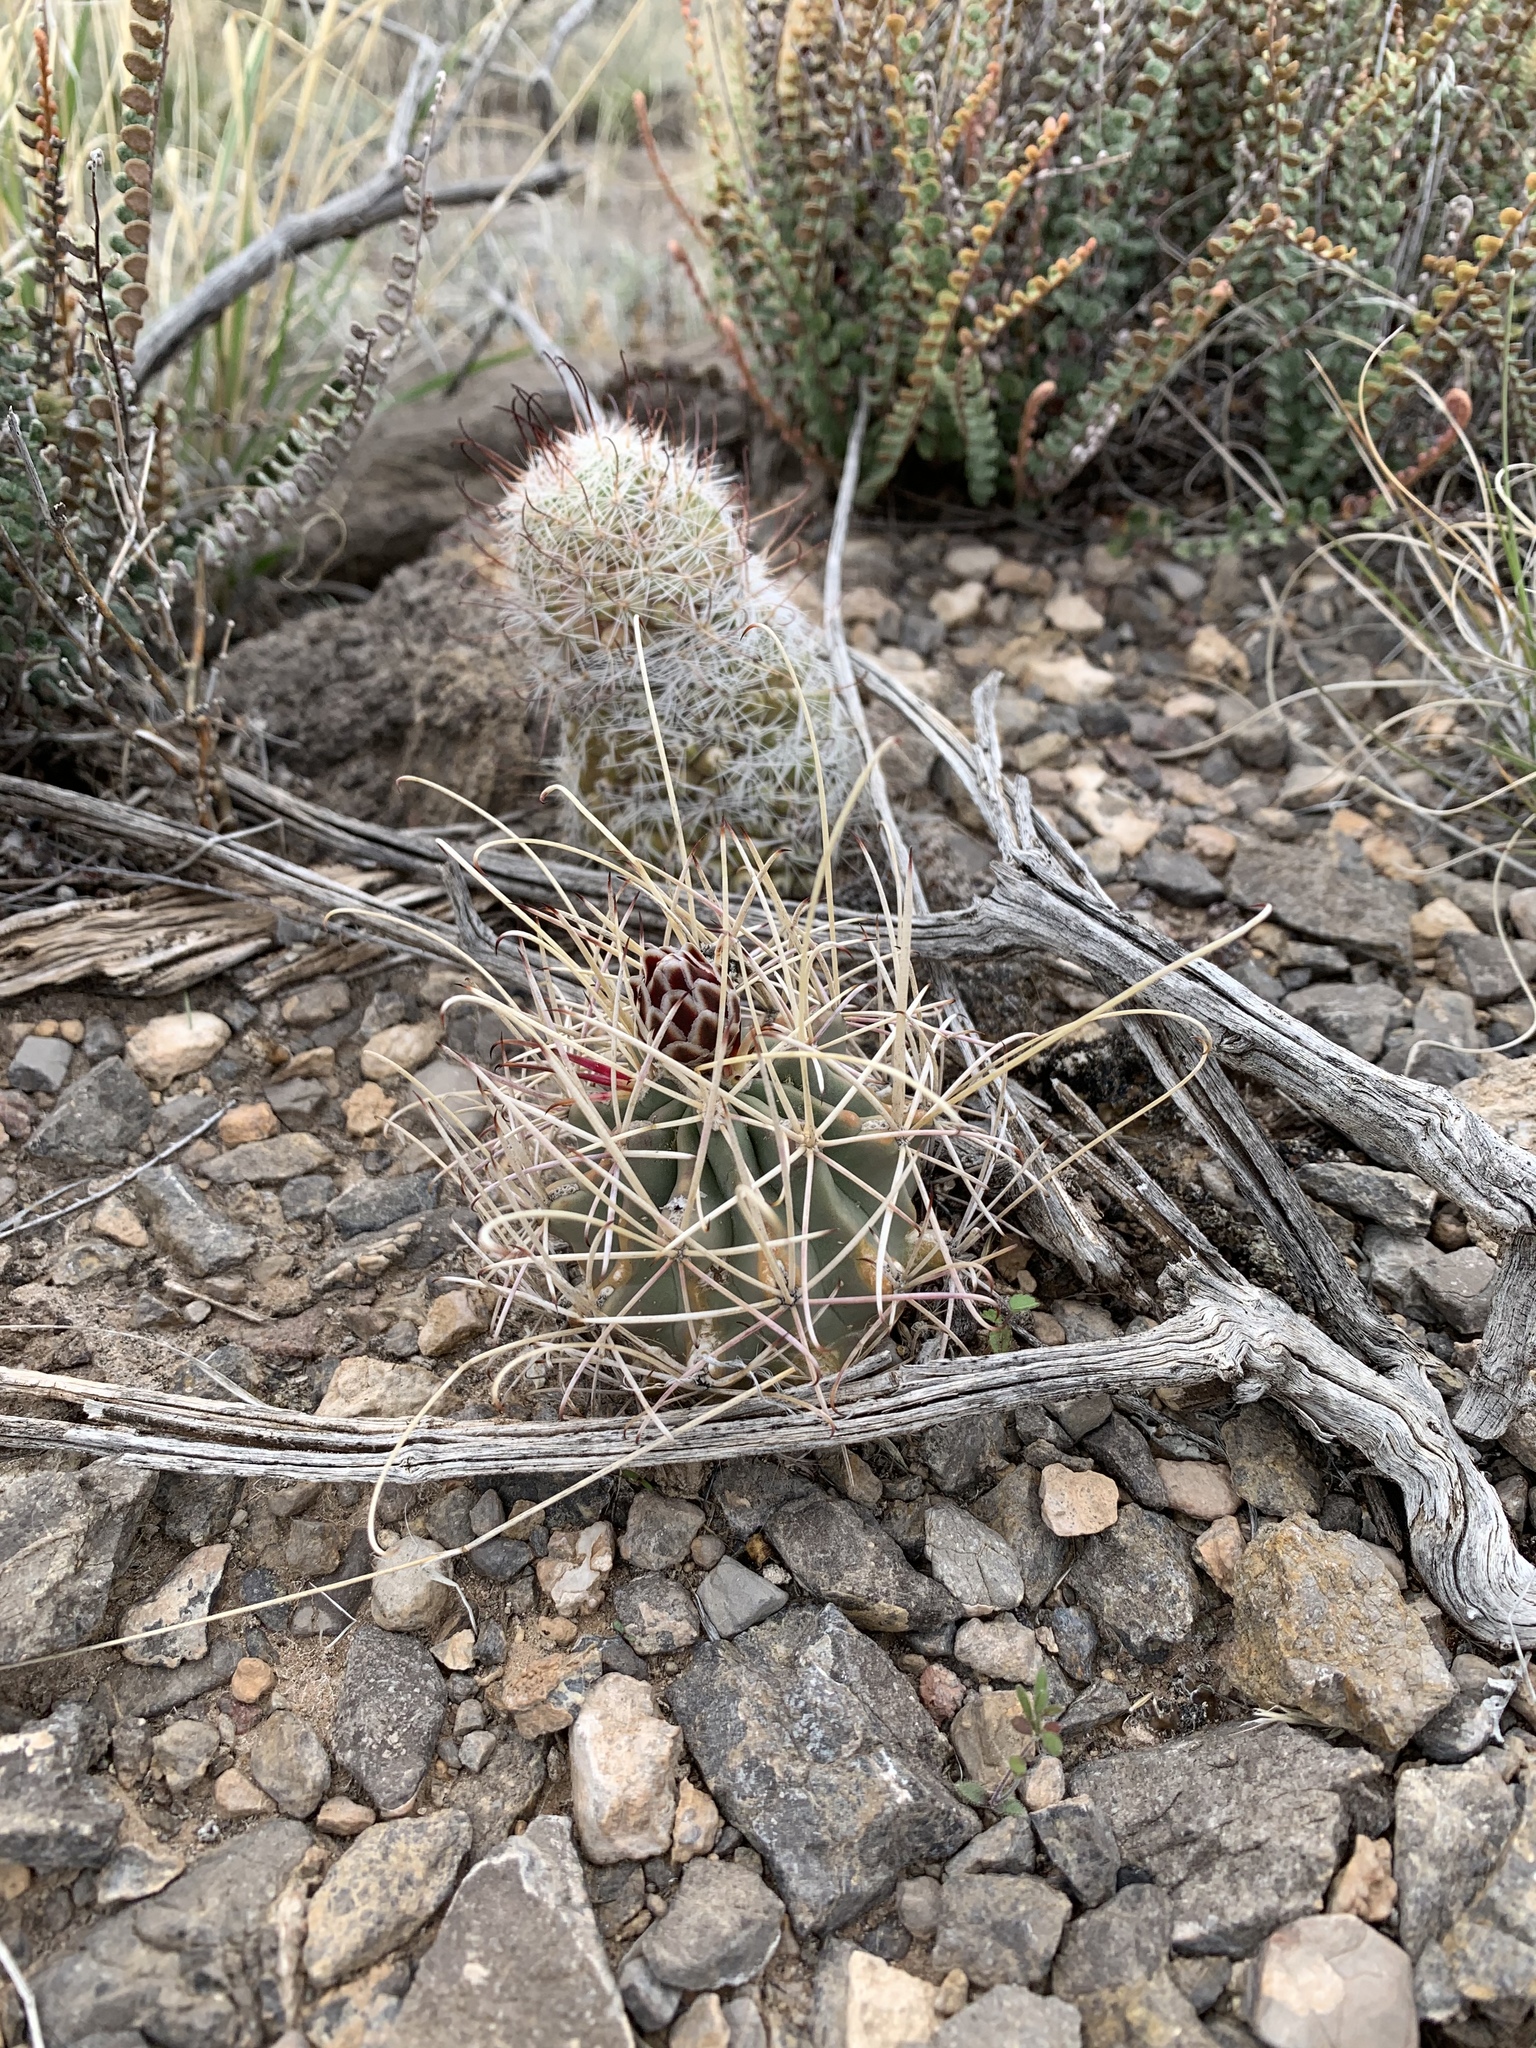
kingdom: Plantae
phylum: Tracheophyta
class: Magnoliopsida
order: Caryophyllales
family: Cactaceae
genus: Ferocactus
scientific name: Ferocactus uncinatus
